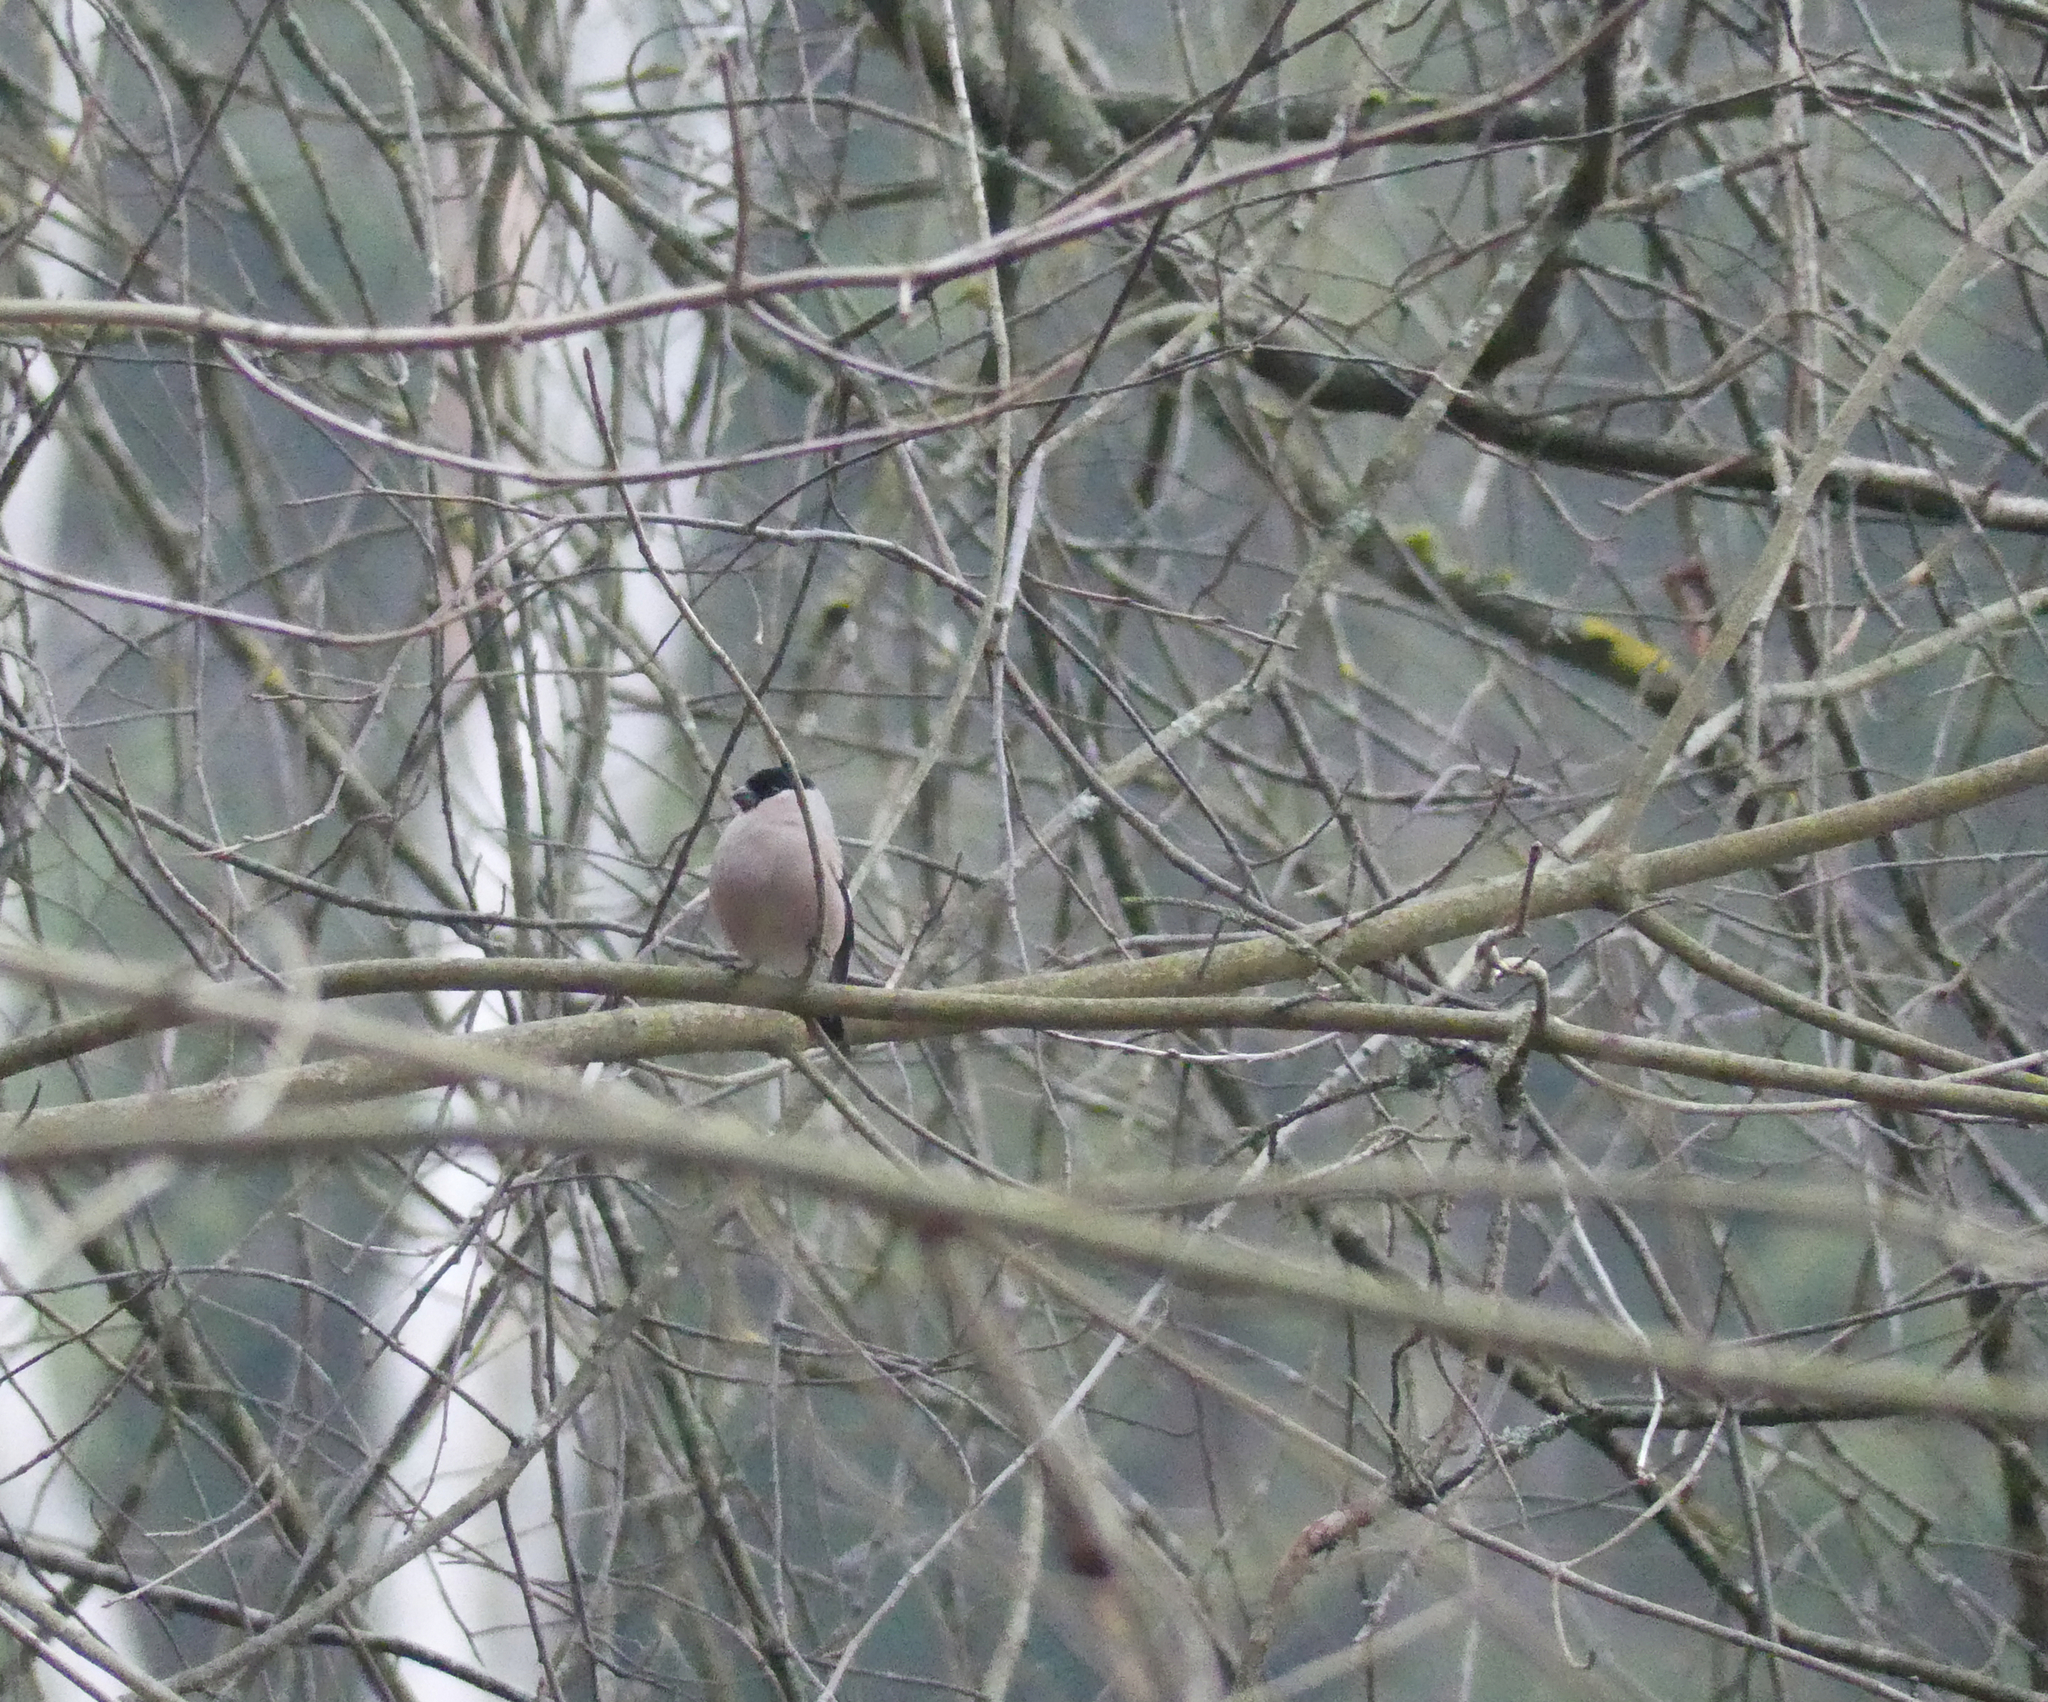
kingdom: Animalia
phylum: Chordata
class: Aves
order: Passeriformes
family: Fringillidae
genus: Pyrrhula
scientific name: Pyrrhula pyrrhula
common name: Eurasian bullfinch
